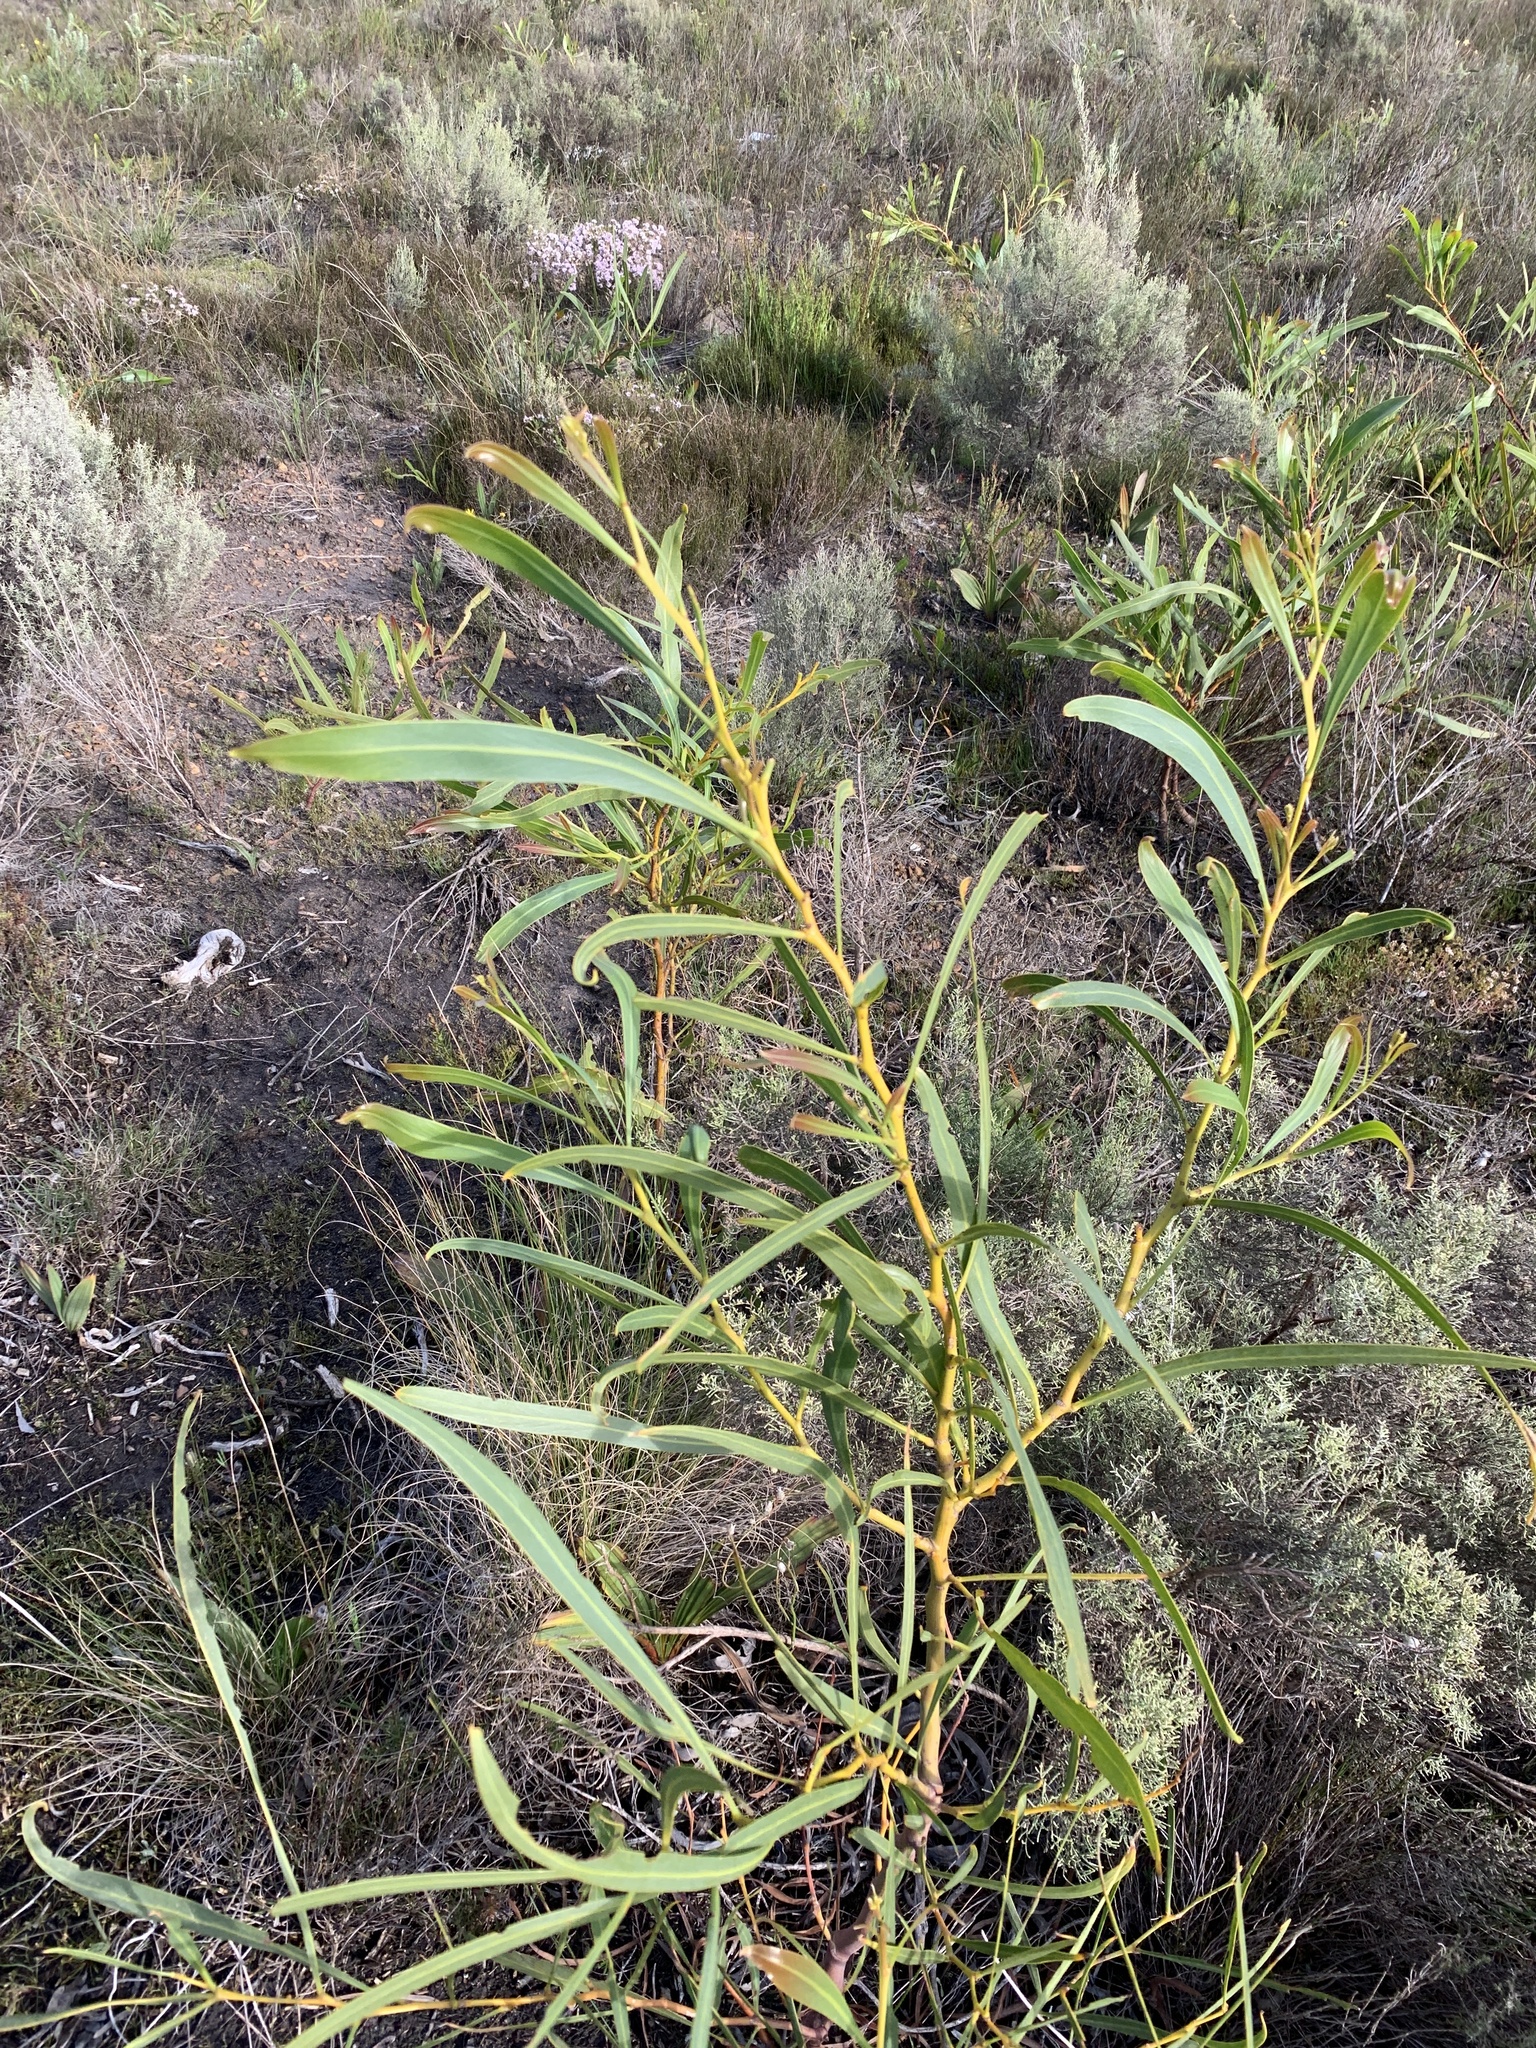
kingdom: Plantae
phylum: Tracheophyta
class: Magnoliopsida
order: Fabales
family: Fabaceae
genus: Acacia
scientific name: Acacia saligna
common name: Orange wattle
